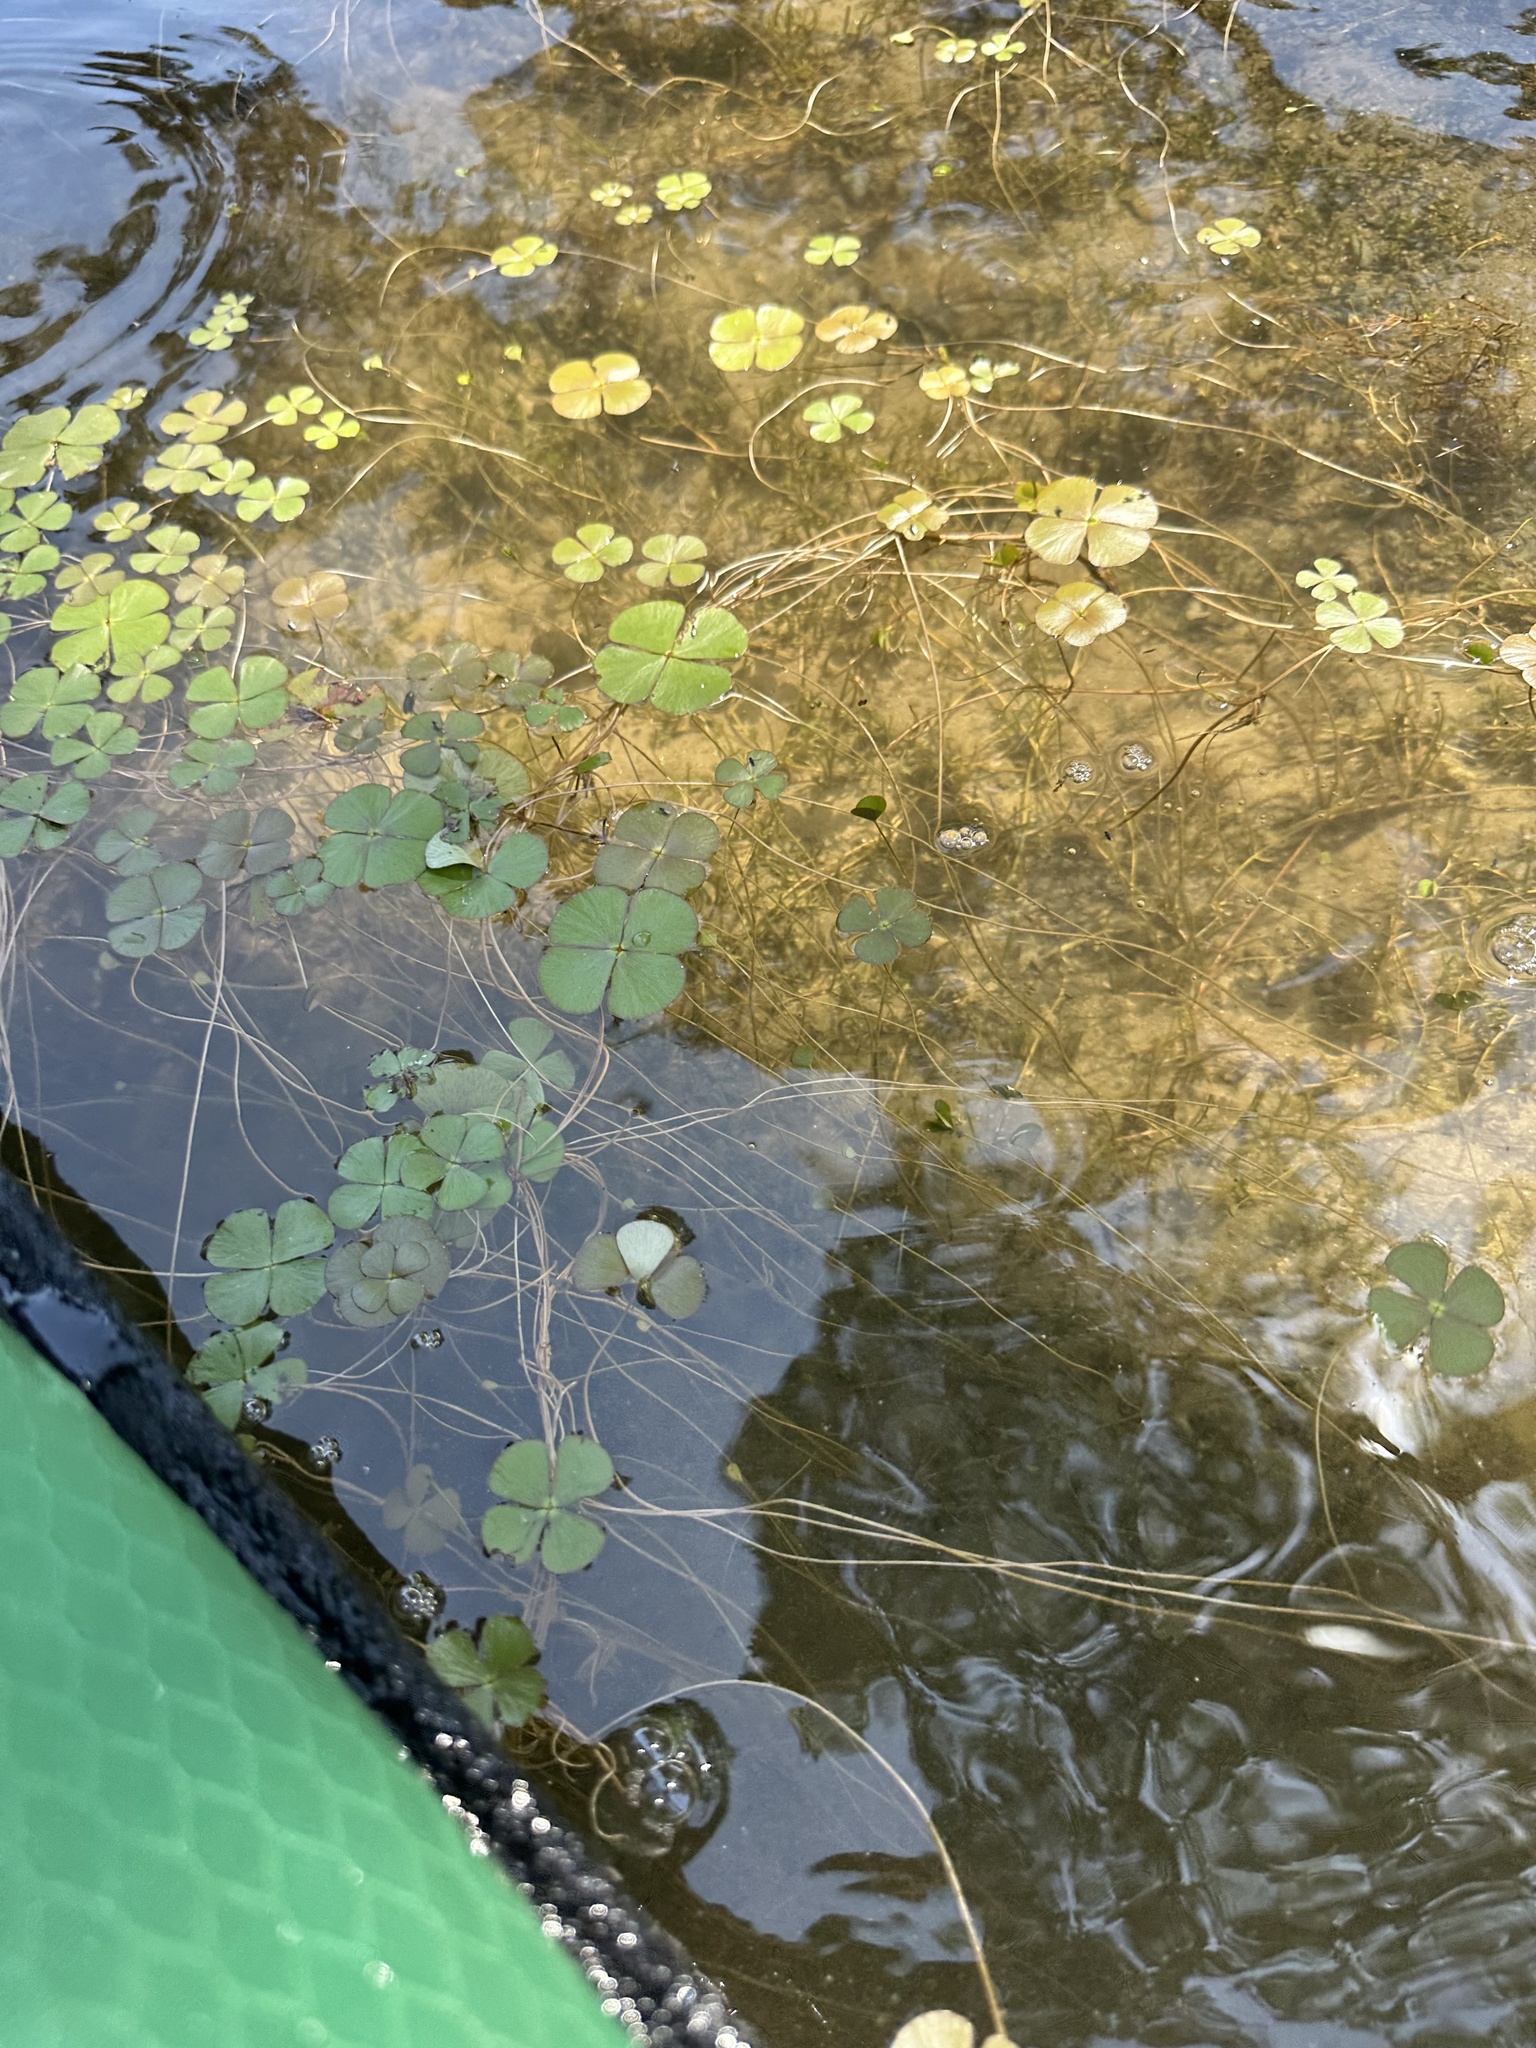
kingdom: Plantae
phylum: Tracheophyta
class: Polypodiopsida
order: Salviniales
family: Marsileaceae
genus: Marsilea
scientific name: Marsilea vestita
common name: Hooked-pepperwort
